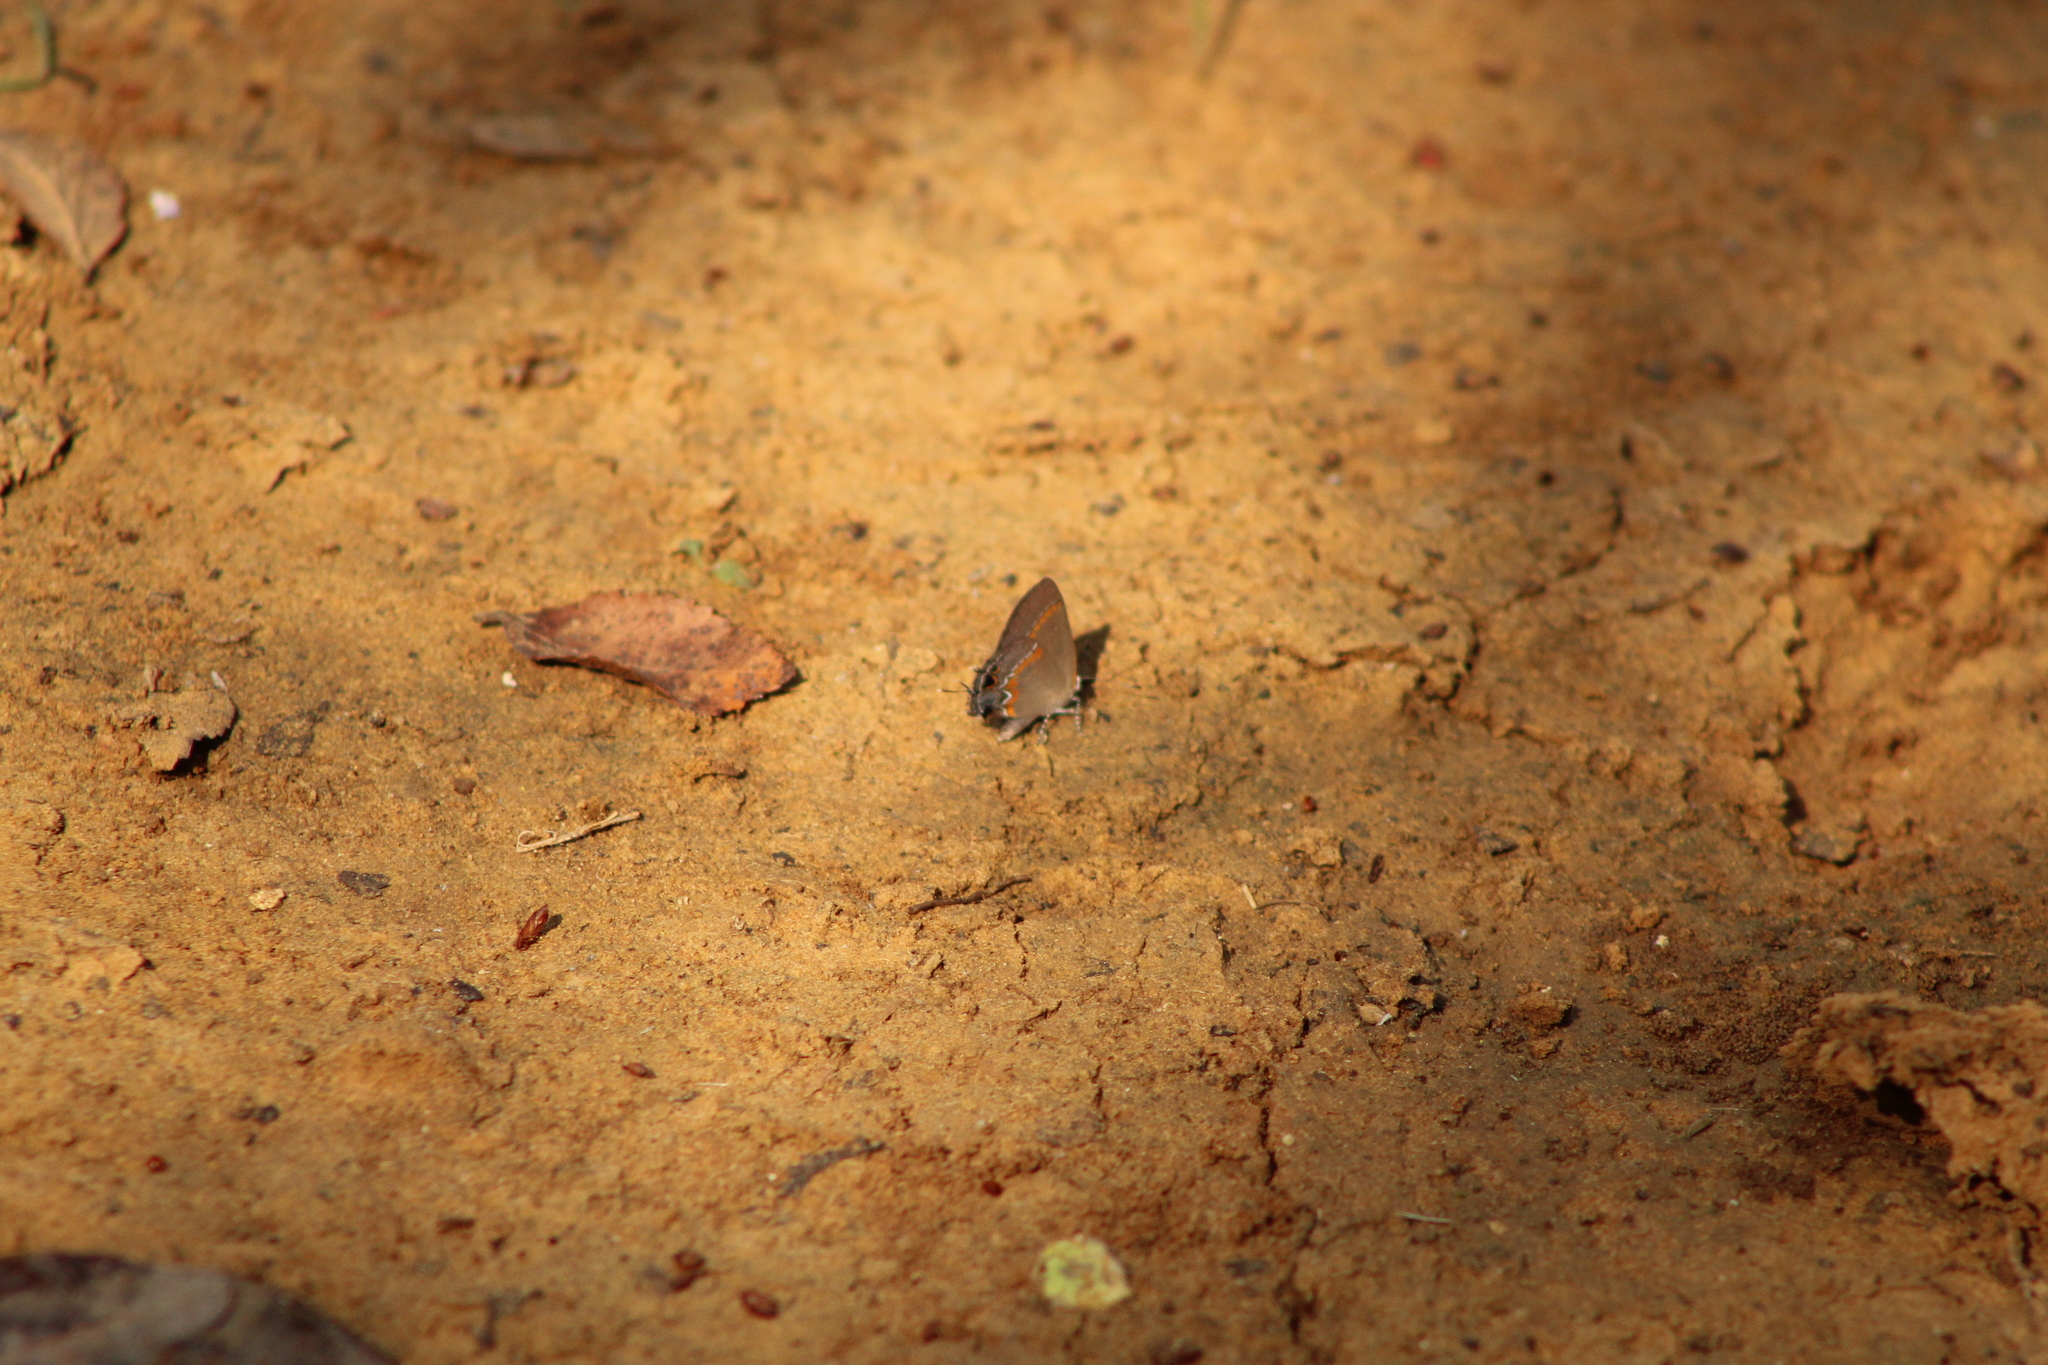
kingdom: Animalia
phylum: Arthropoda
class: Insecta
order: Lepidoptera
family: Lycaenidae
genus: Calycopis
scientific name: Calycopis cecrops
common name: Red-banded hairstreak
